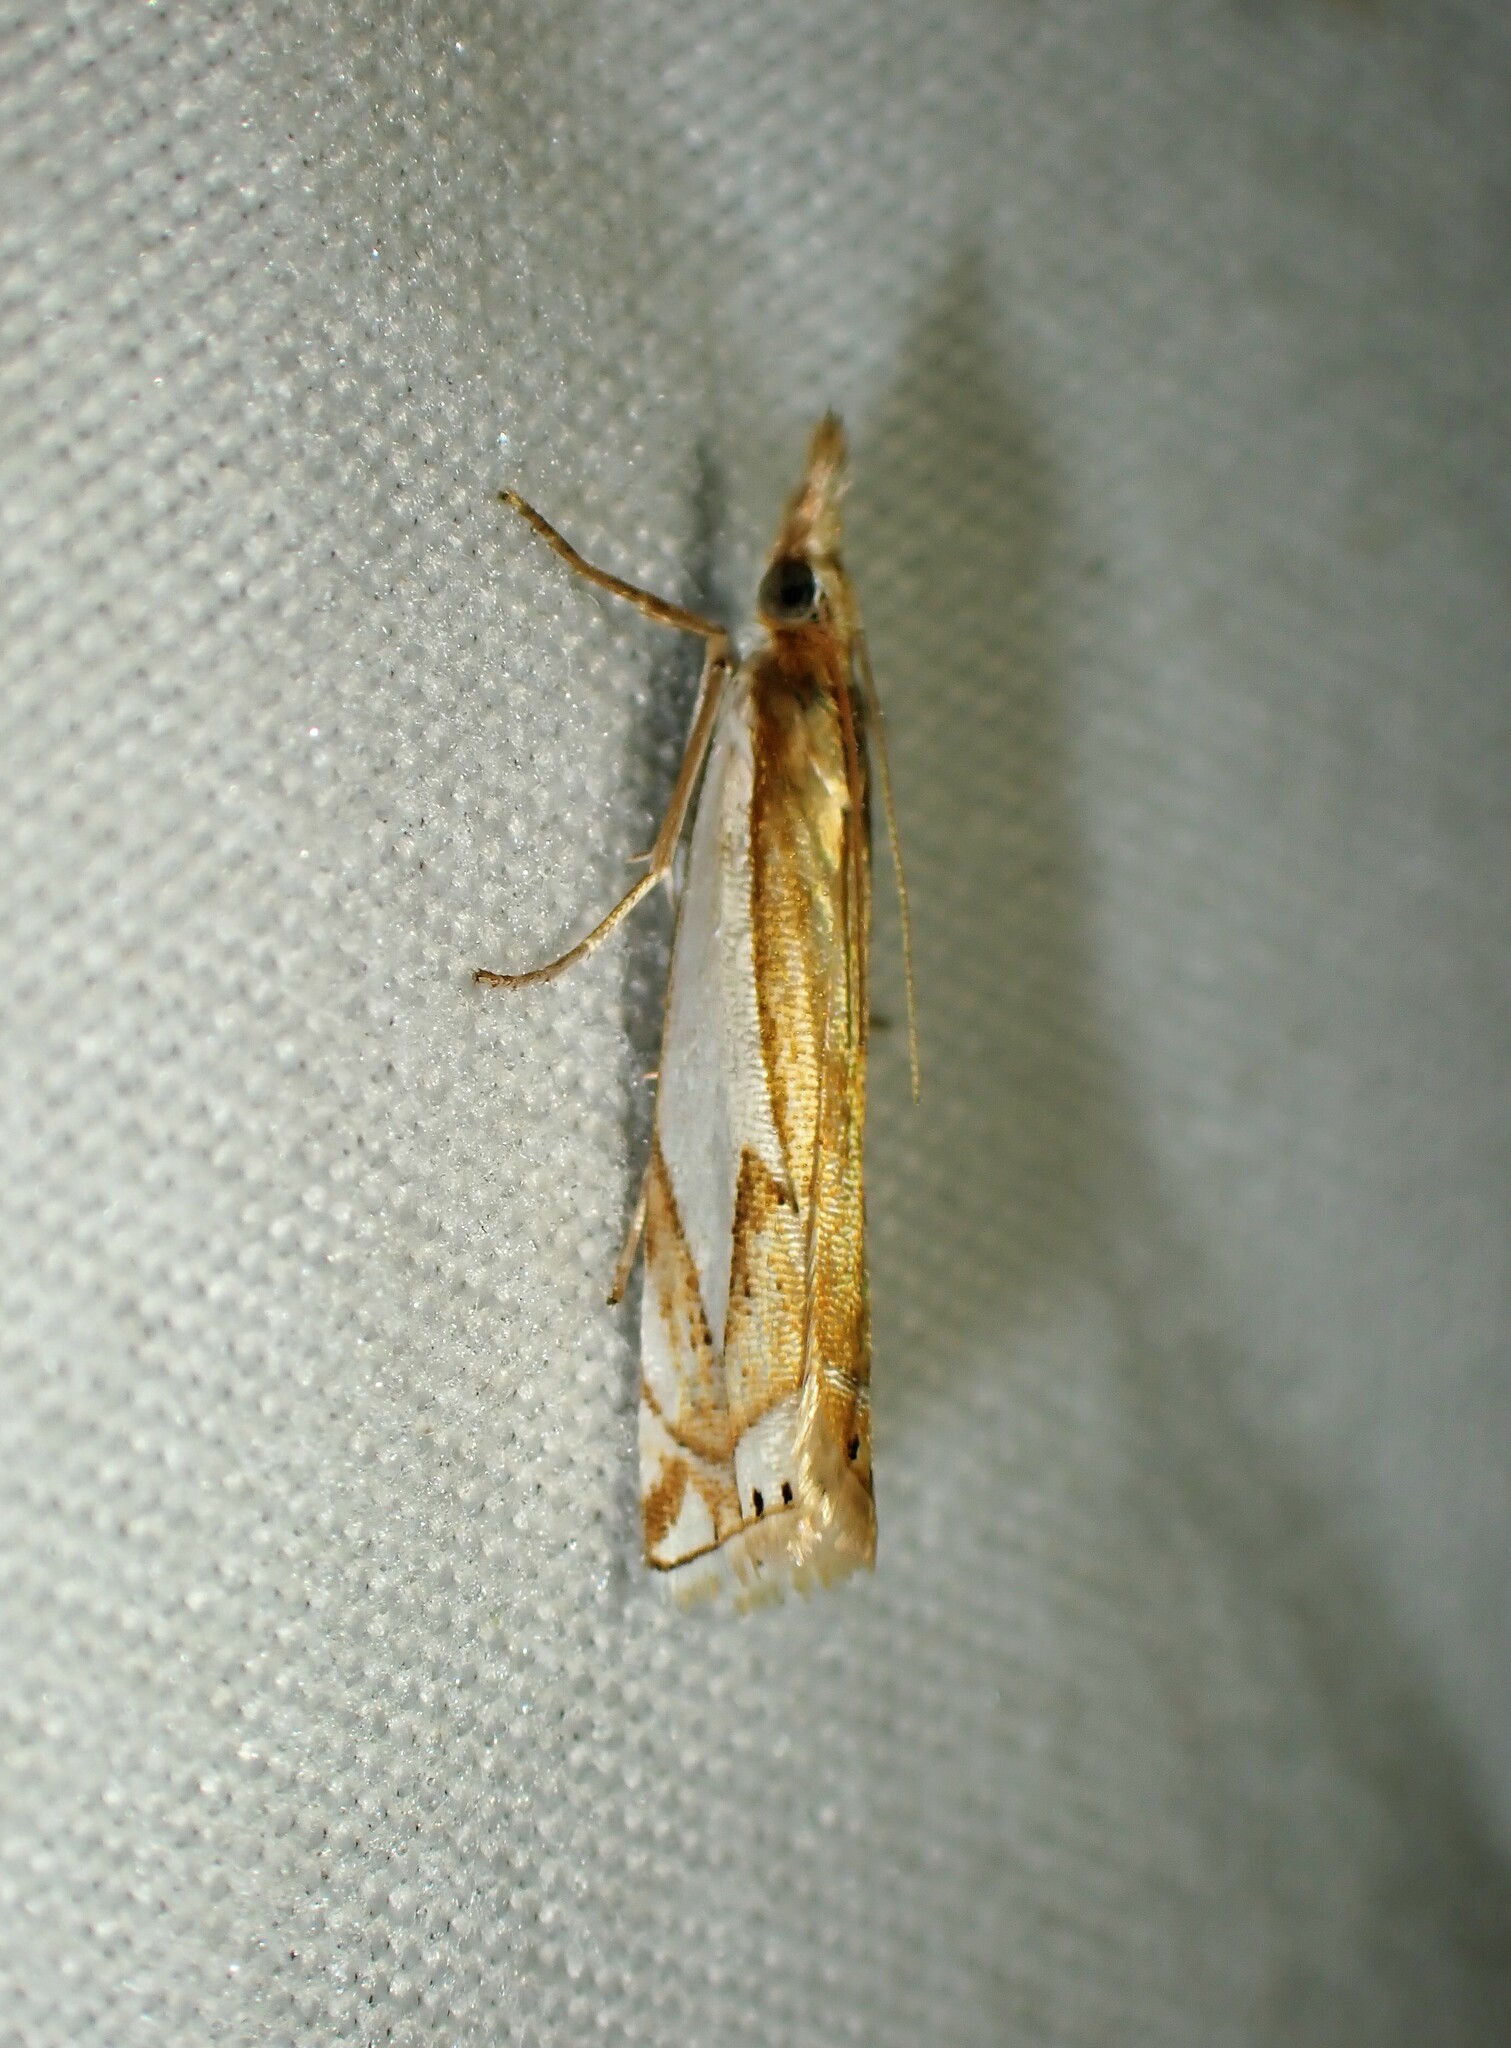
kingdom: Animalia
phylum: Arthropoda
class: Insecta
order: Lepidoptera
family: Crambidae
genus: Crambus
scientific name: Crambus bidens
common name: Forked grass-veneer
